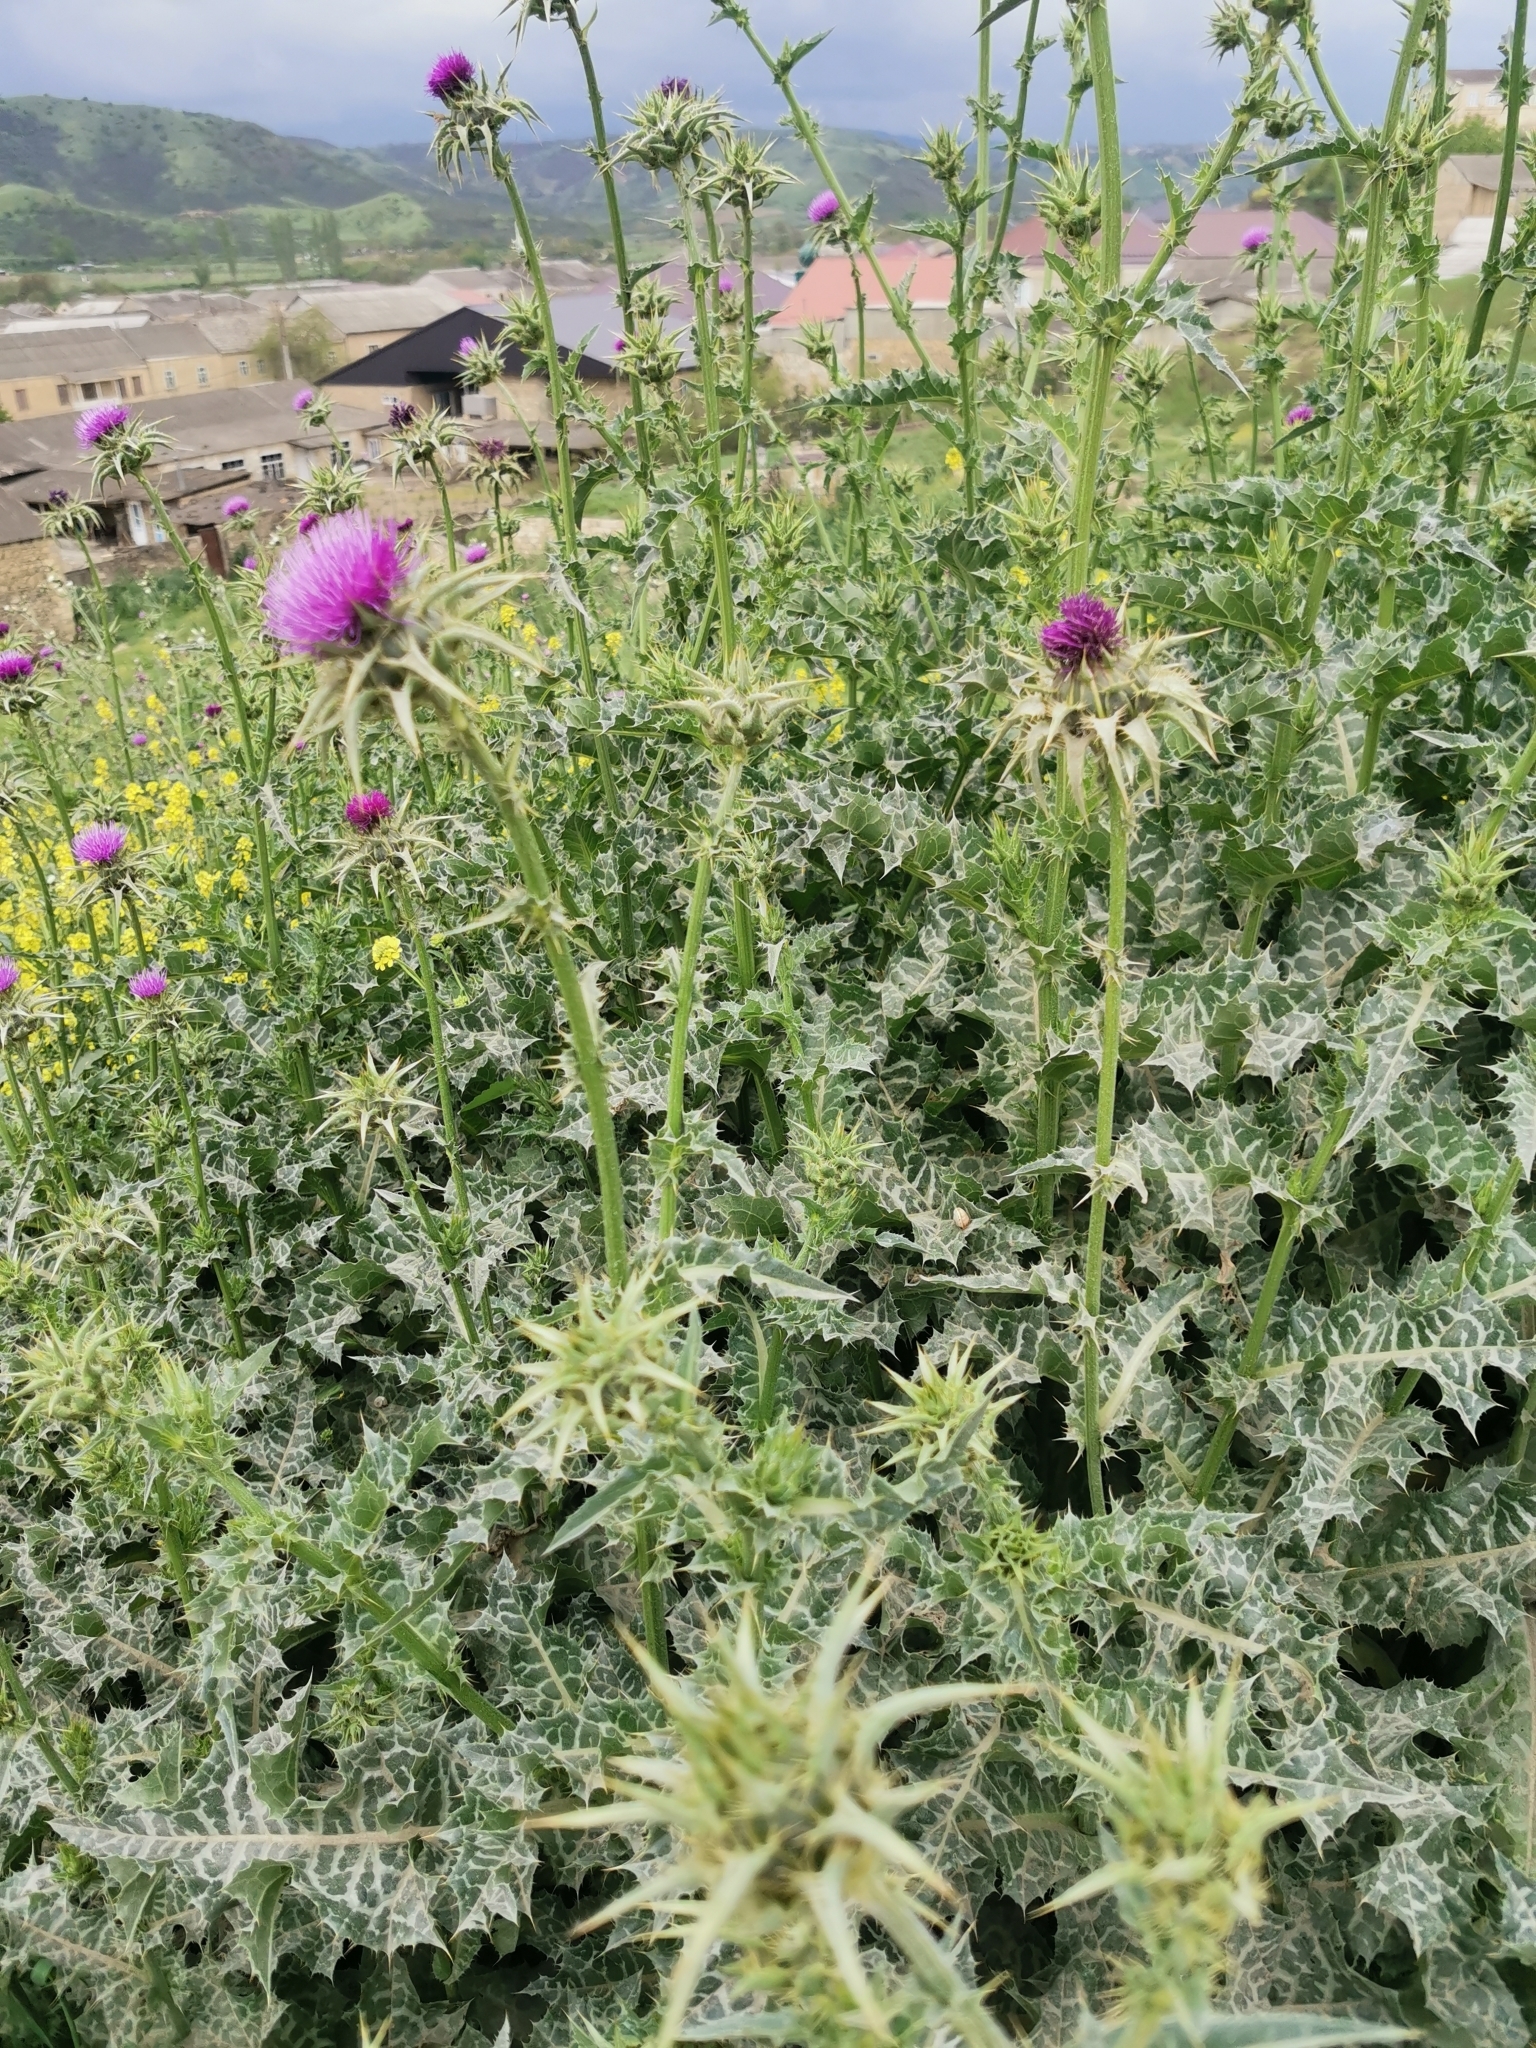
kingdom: Plantae
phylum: Tracheophyta
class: Magnoliopsida
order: Asterales
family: Asteraceae
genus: Silybum
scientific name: Silybum marianum
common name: Milk thistle
